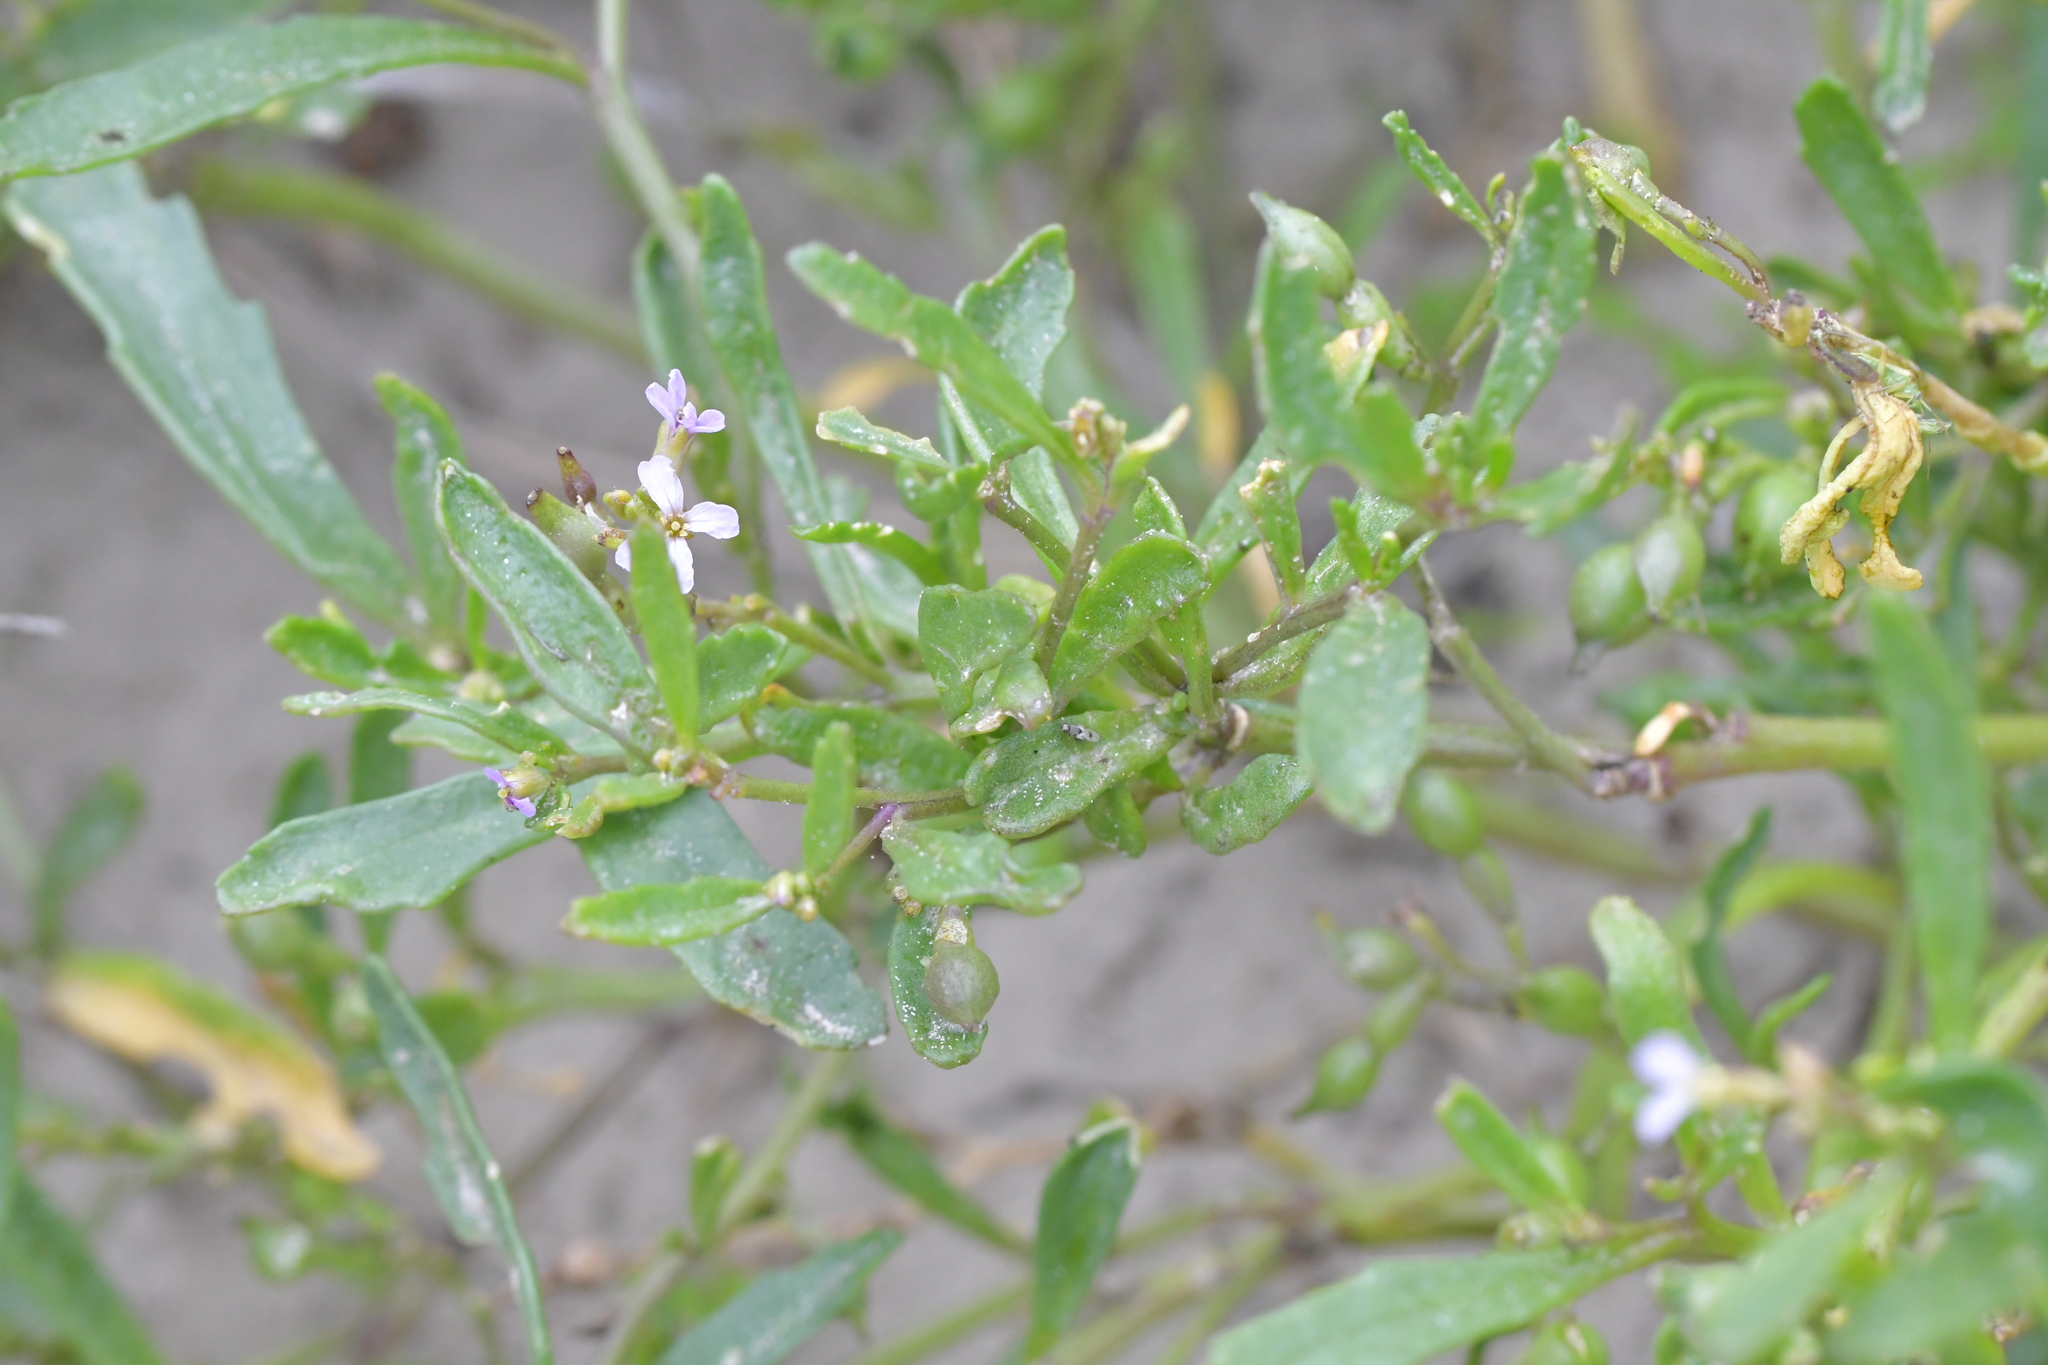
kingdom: Plantae
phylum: Tracheophyta
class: Magnoliopsida
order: Brassicales
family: Brassicaceae
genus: Cakile
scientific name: Cakile edentula
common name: American sea rocket
